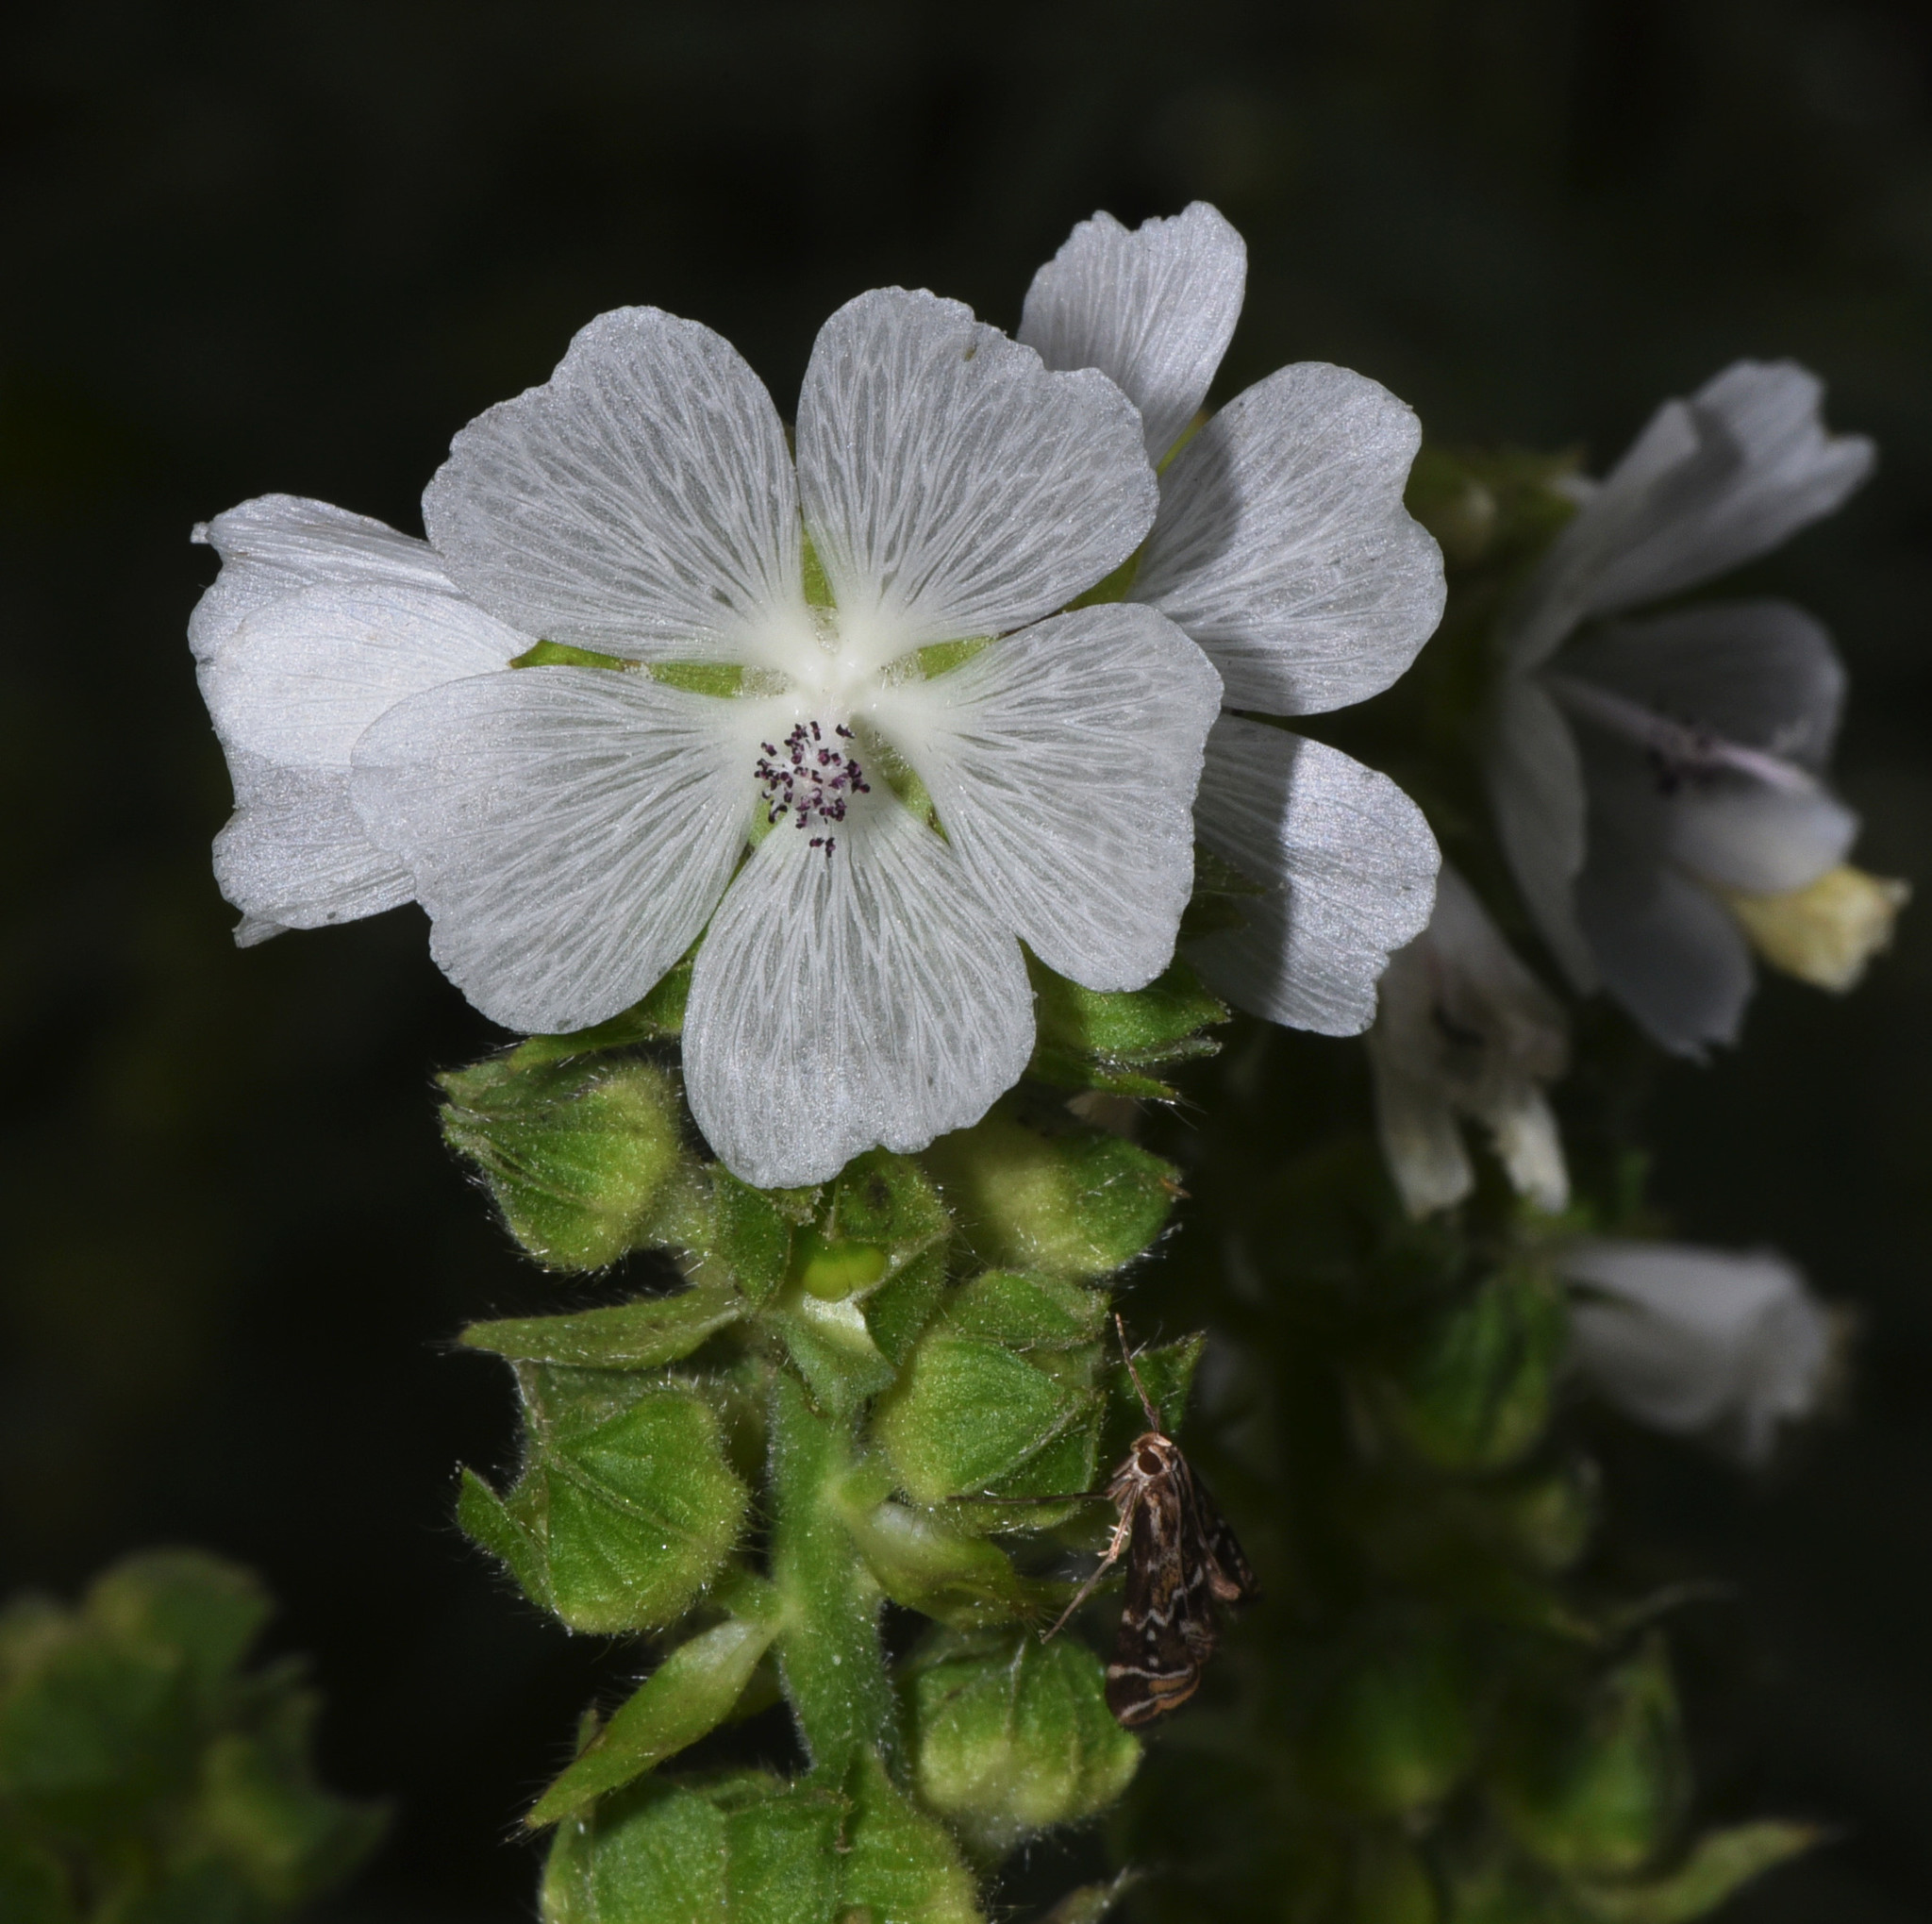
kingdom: Plantae
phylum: Tracheophyta
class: Magnoliopsida
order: Malvales
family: Malvaceae
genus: Sidalcea
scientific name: Sidalcea candida
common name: Prairie-mallow
